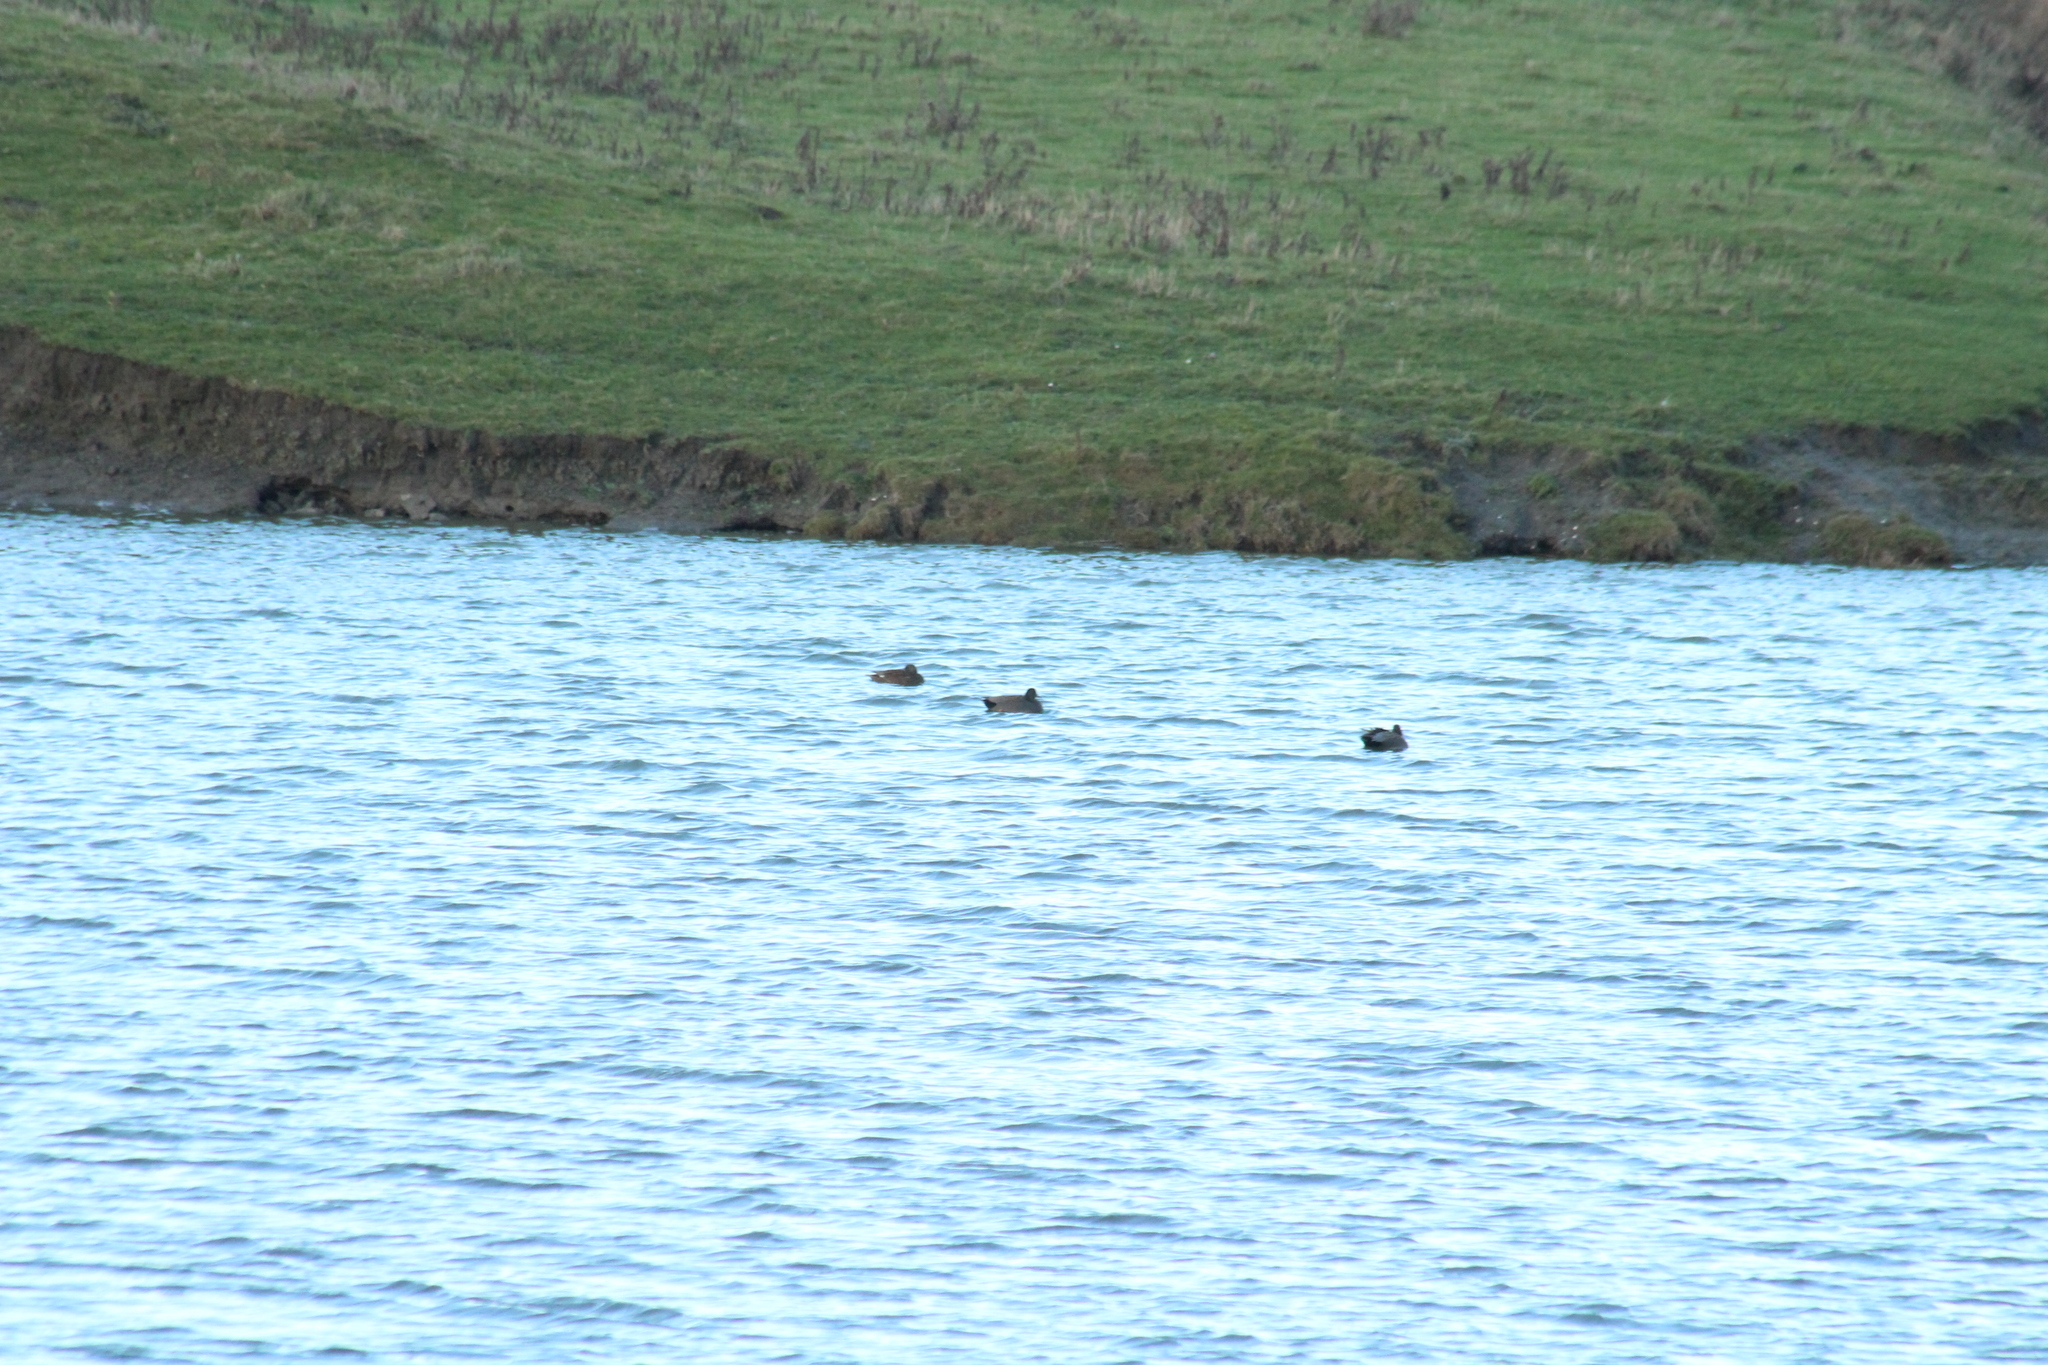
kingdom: Animalia
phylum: Chordata
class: Aves
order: Anseriformes
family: Anatidae
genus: Mareca
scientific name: Mareca strepera
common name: Gadwall
